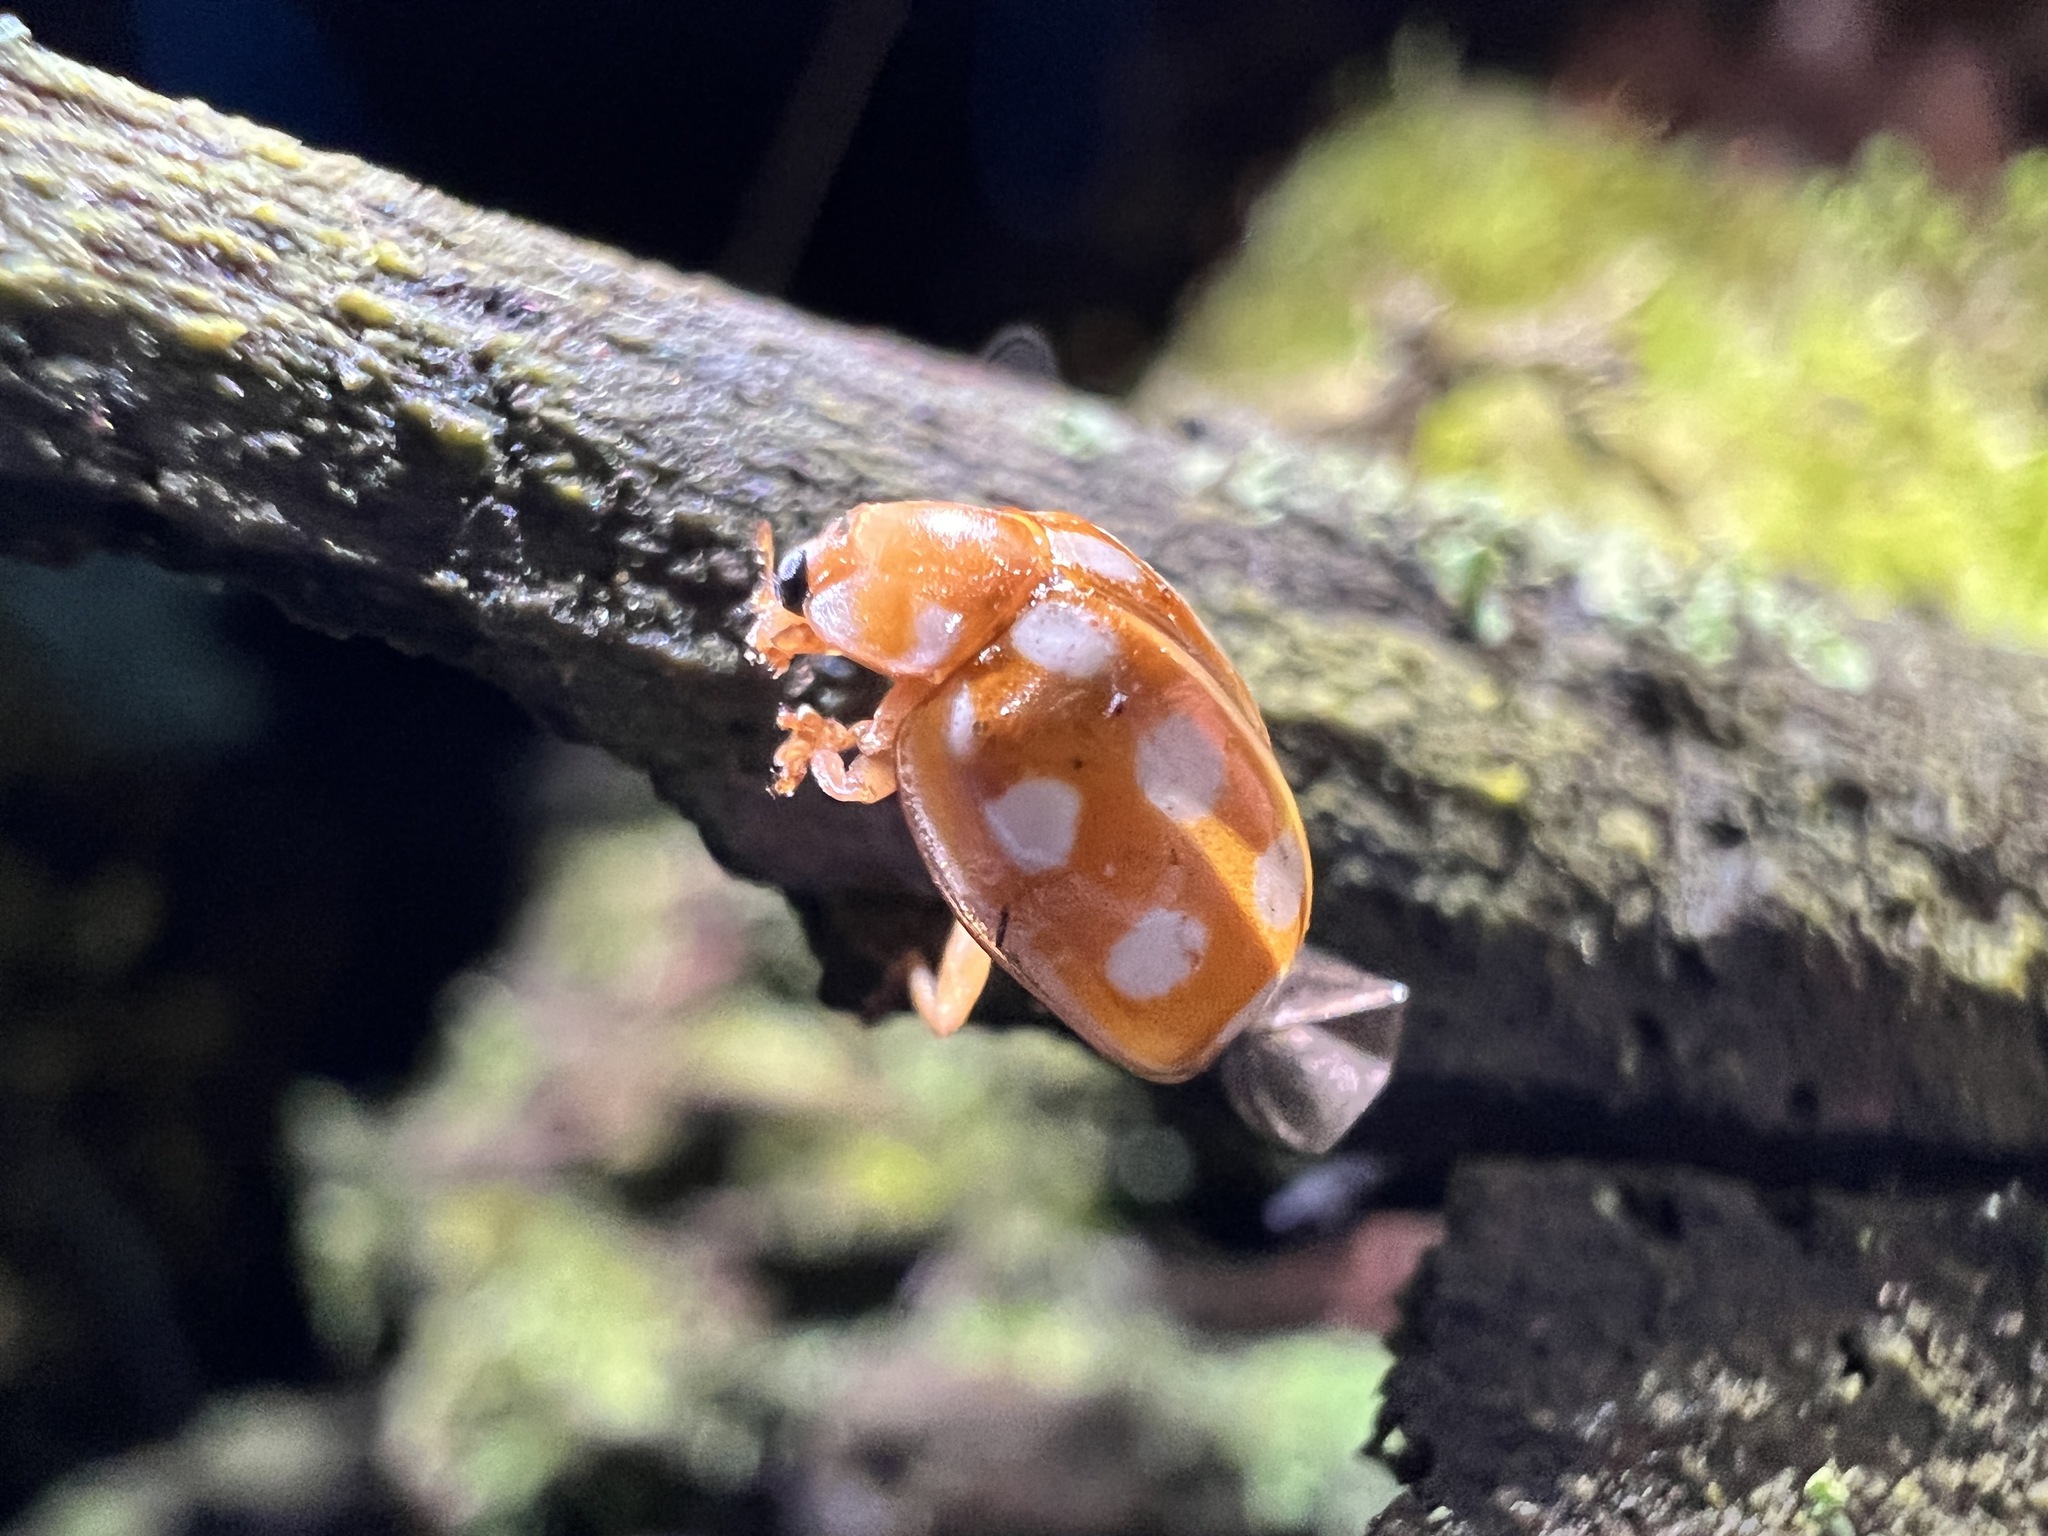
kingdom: Animalia
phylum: Arthropoda
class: Insecta
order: Coleoptera
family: Coccinellidae
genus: Calvia
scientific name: Calvia quindecimguttata
